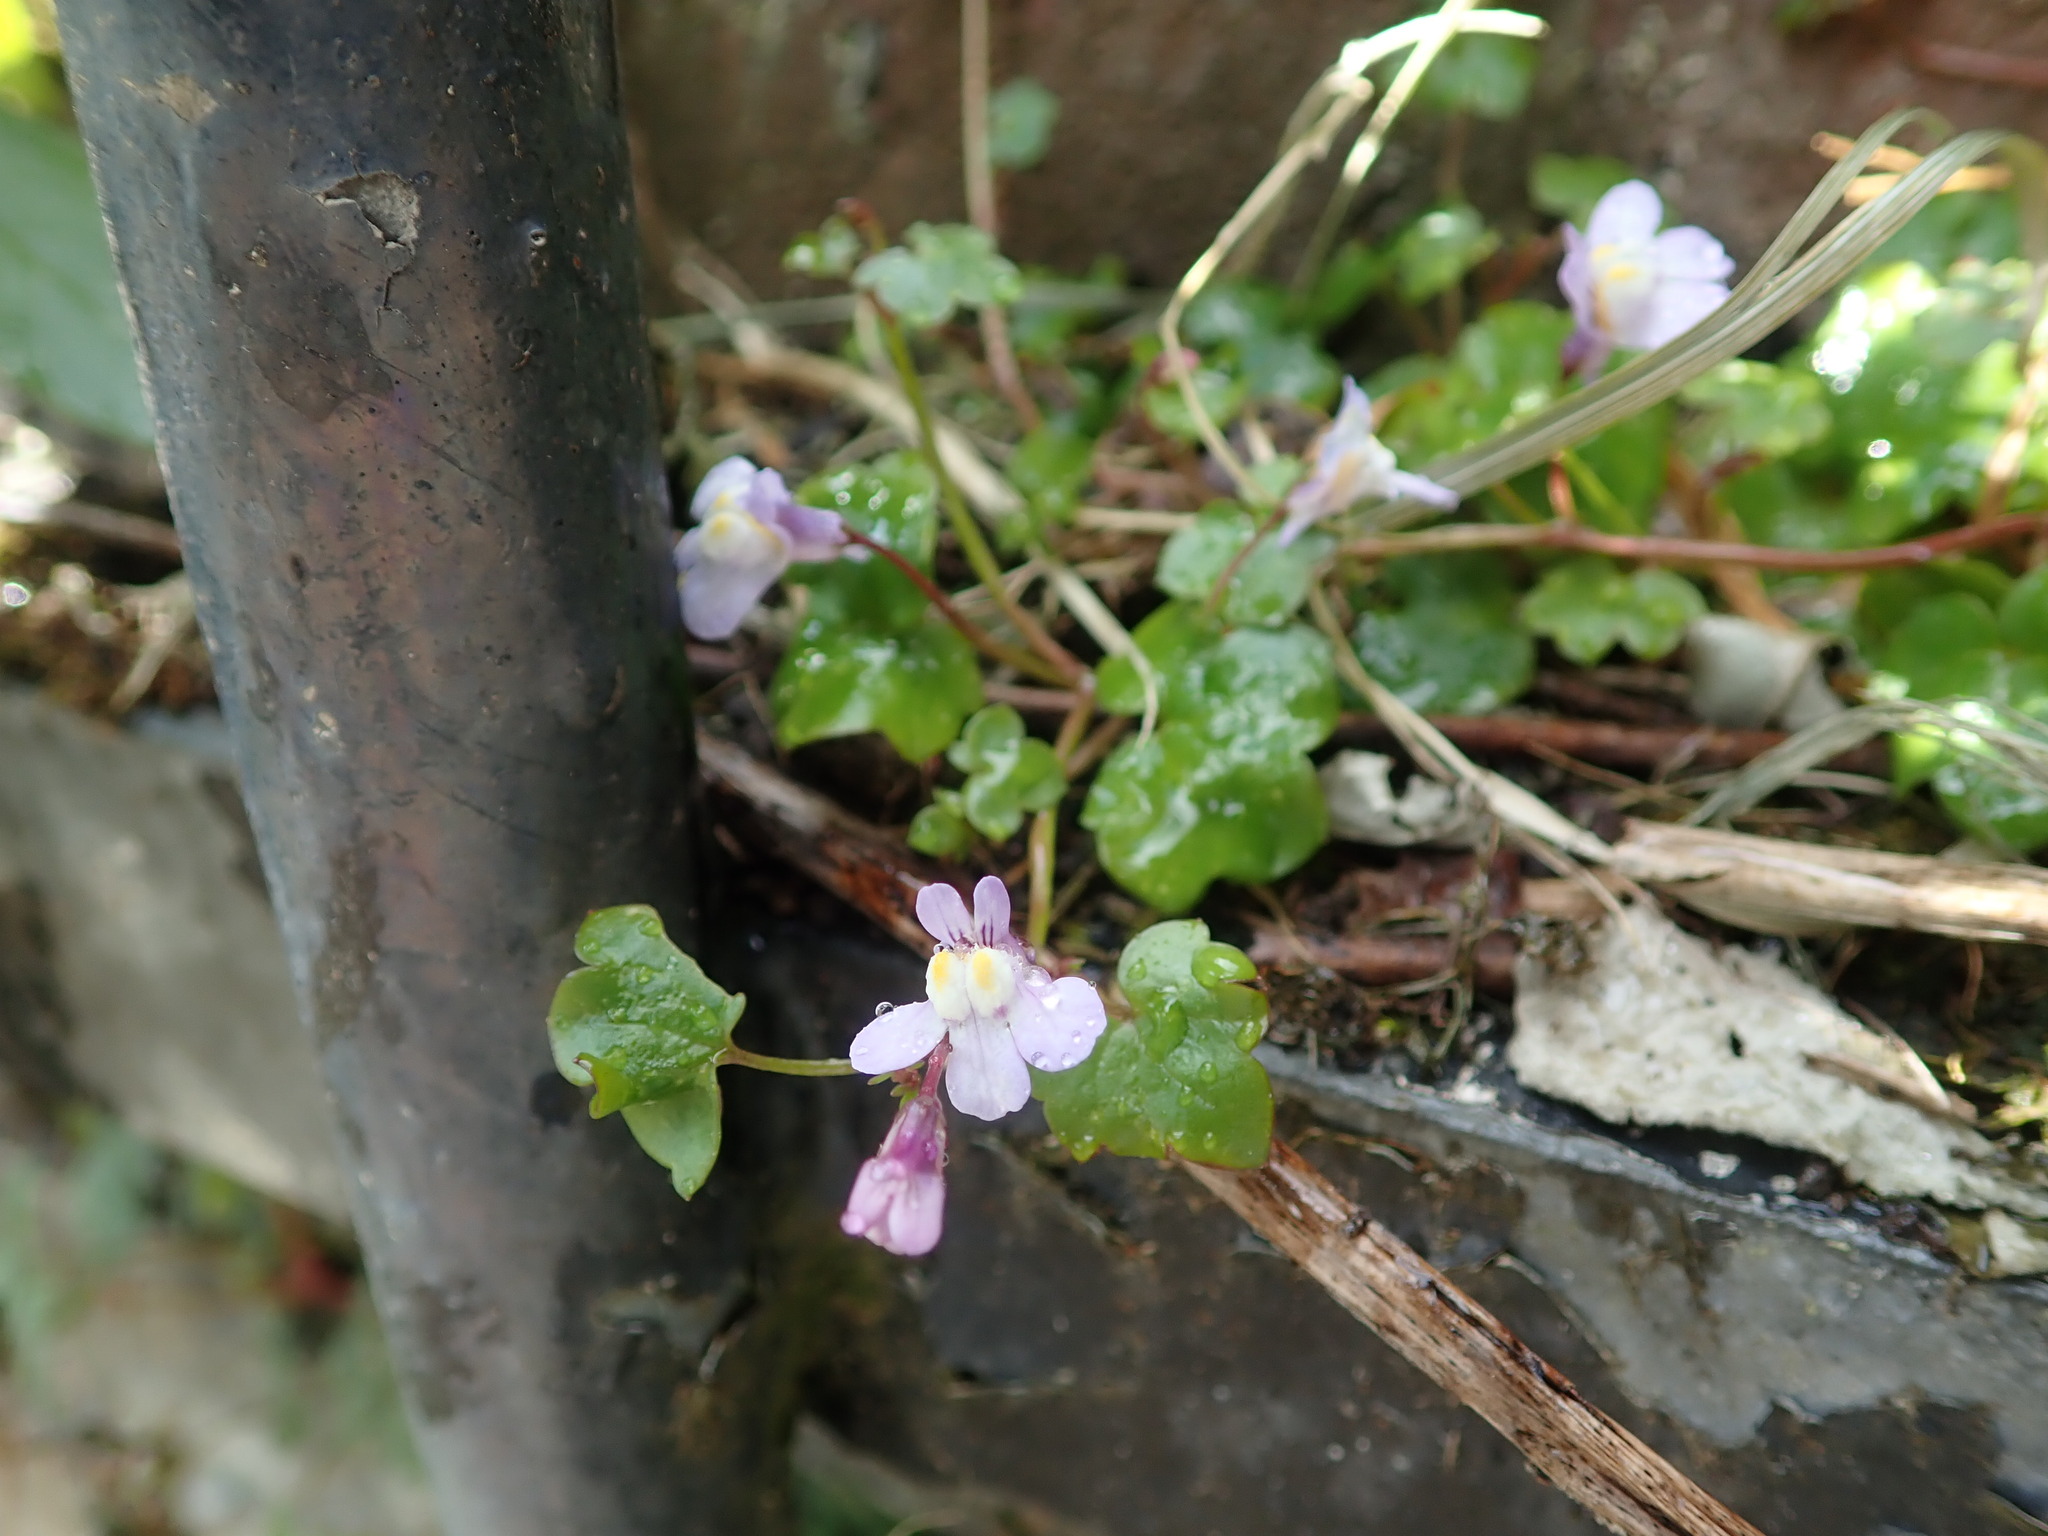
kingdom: Plantae
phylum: Tracheophyta
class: Magnoliopsida
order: Lamiales
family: Plantaginaceae
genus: Cymbalaria
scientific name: Cymbalaria muralis
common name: Ivy-leaved toadflax
